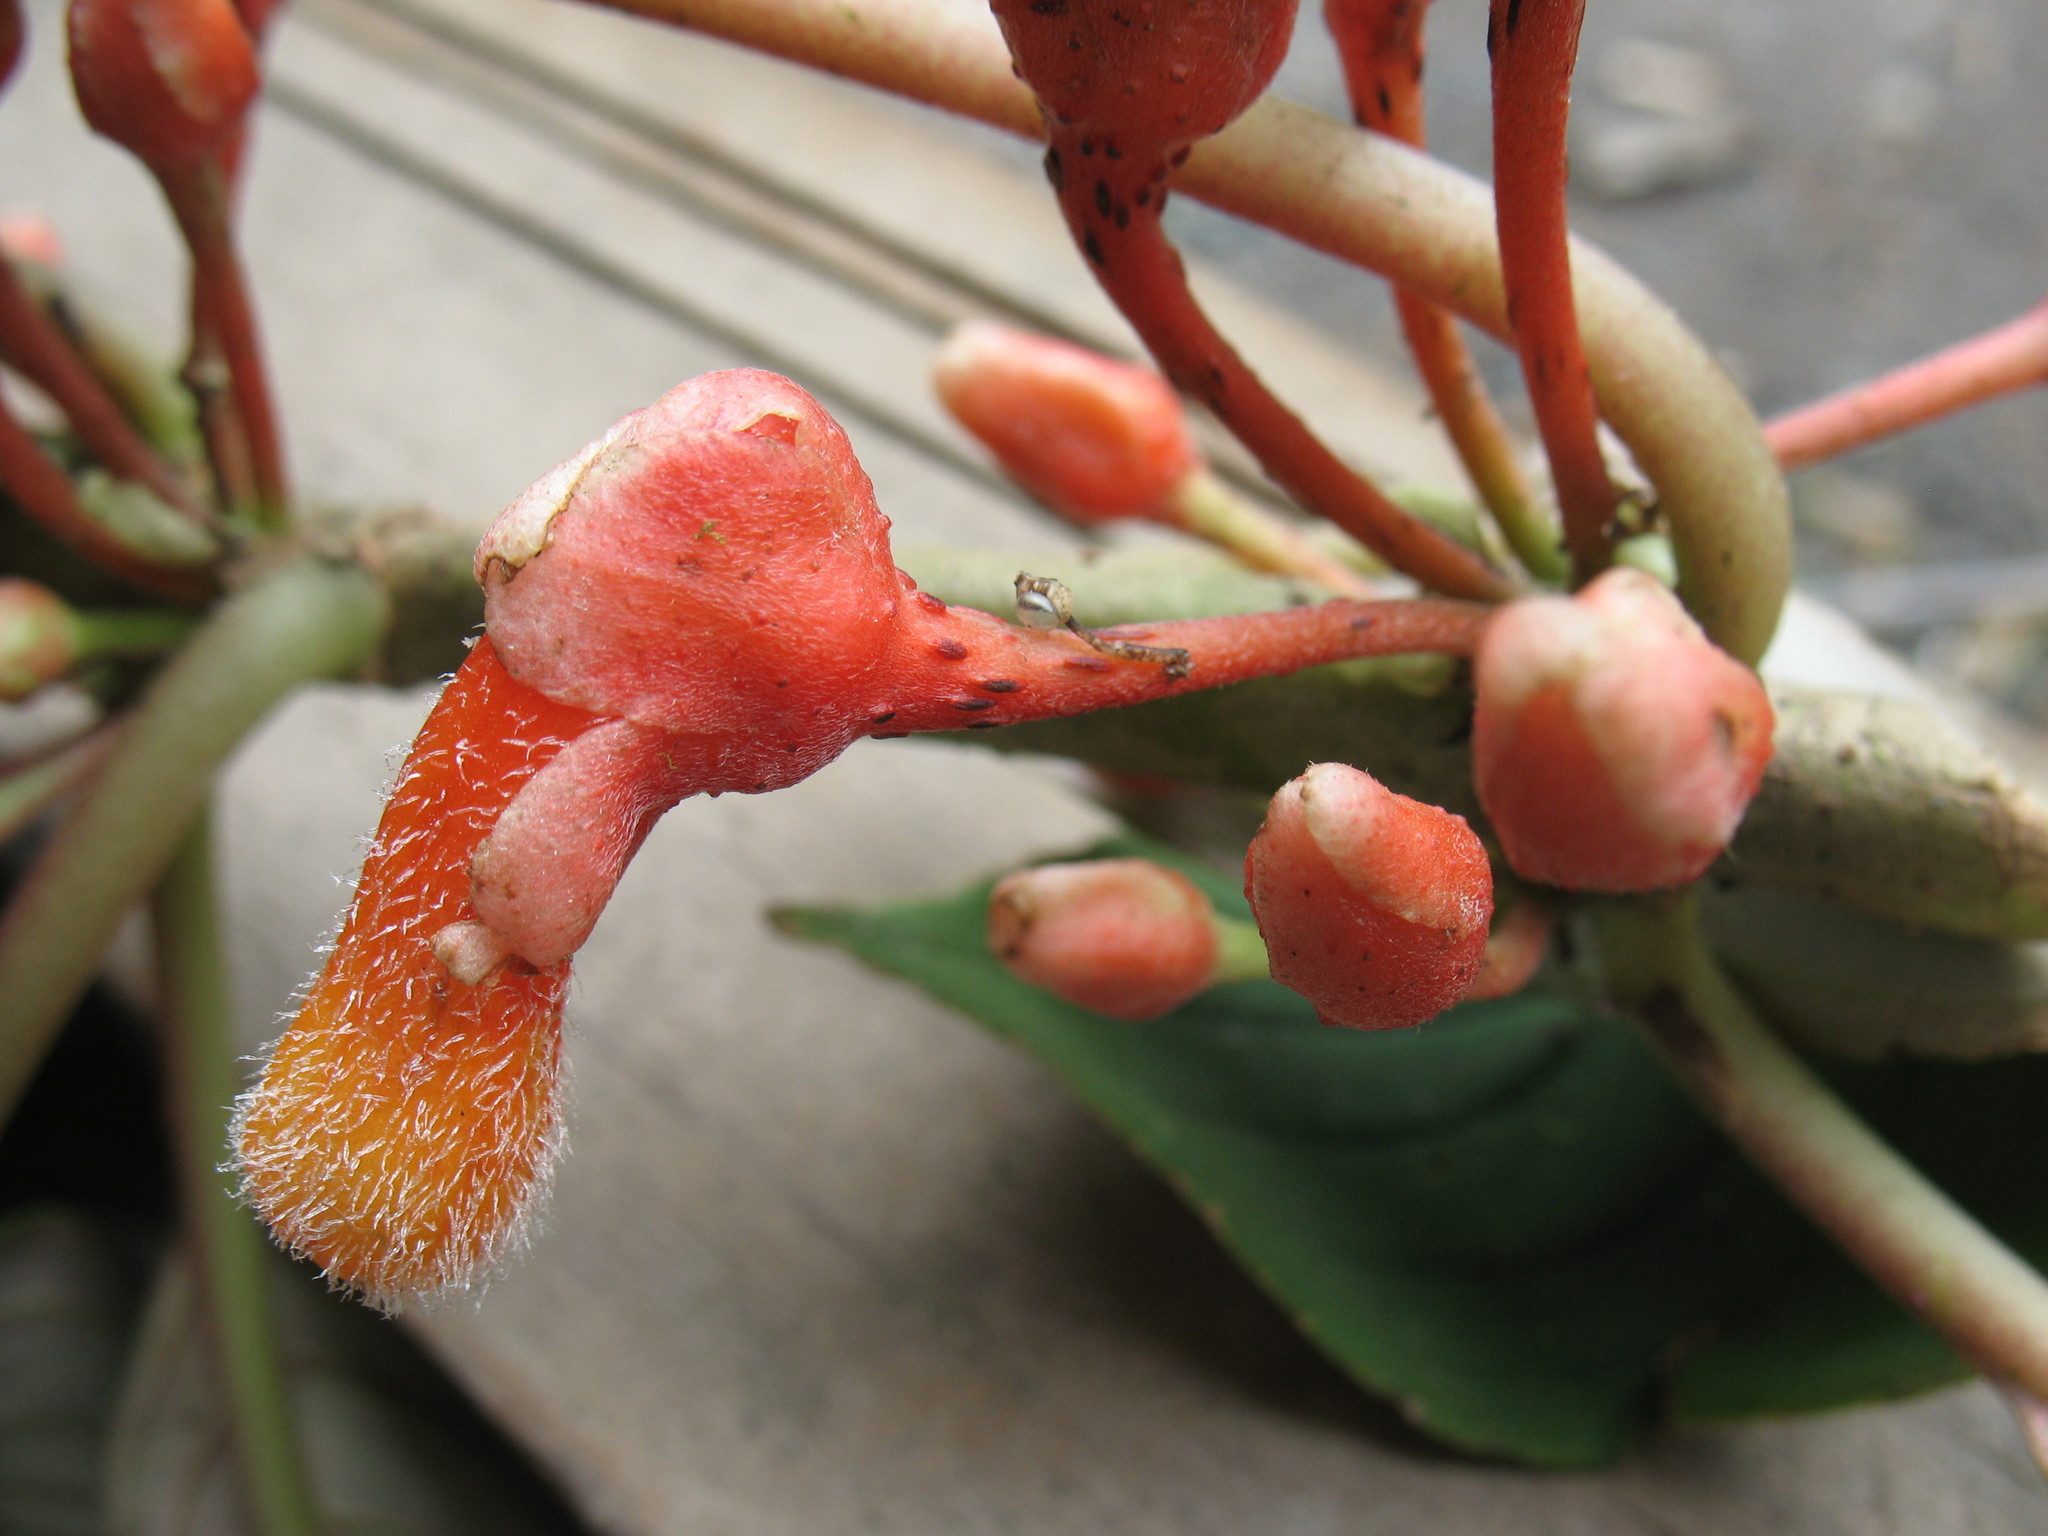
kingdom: Plantae
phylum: Tracheophyta
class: Magnoliopsida
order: Lamiales
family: Gesneriaceae
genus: Glossoloma
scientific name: Glossoloma bolivianum
